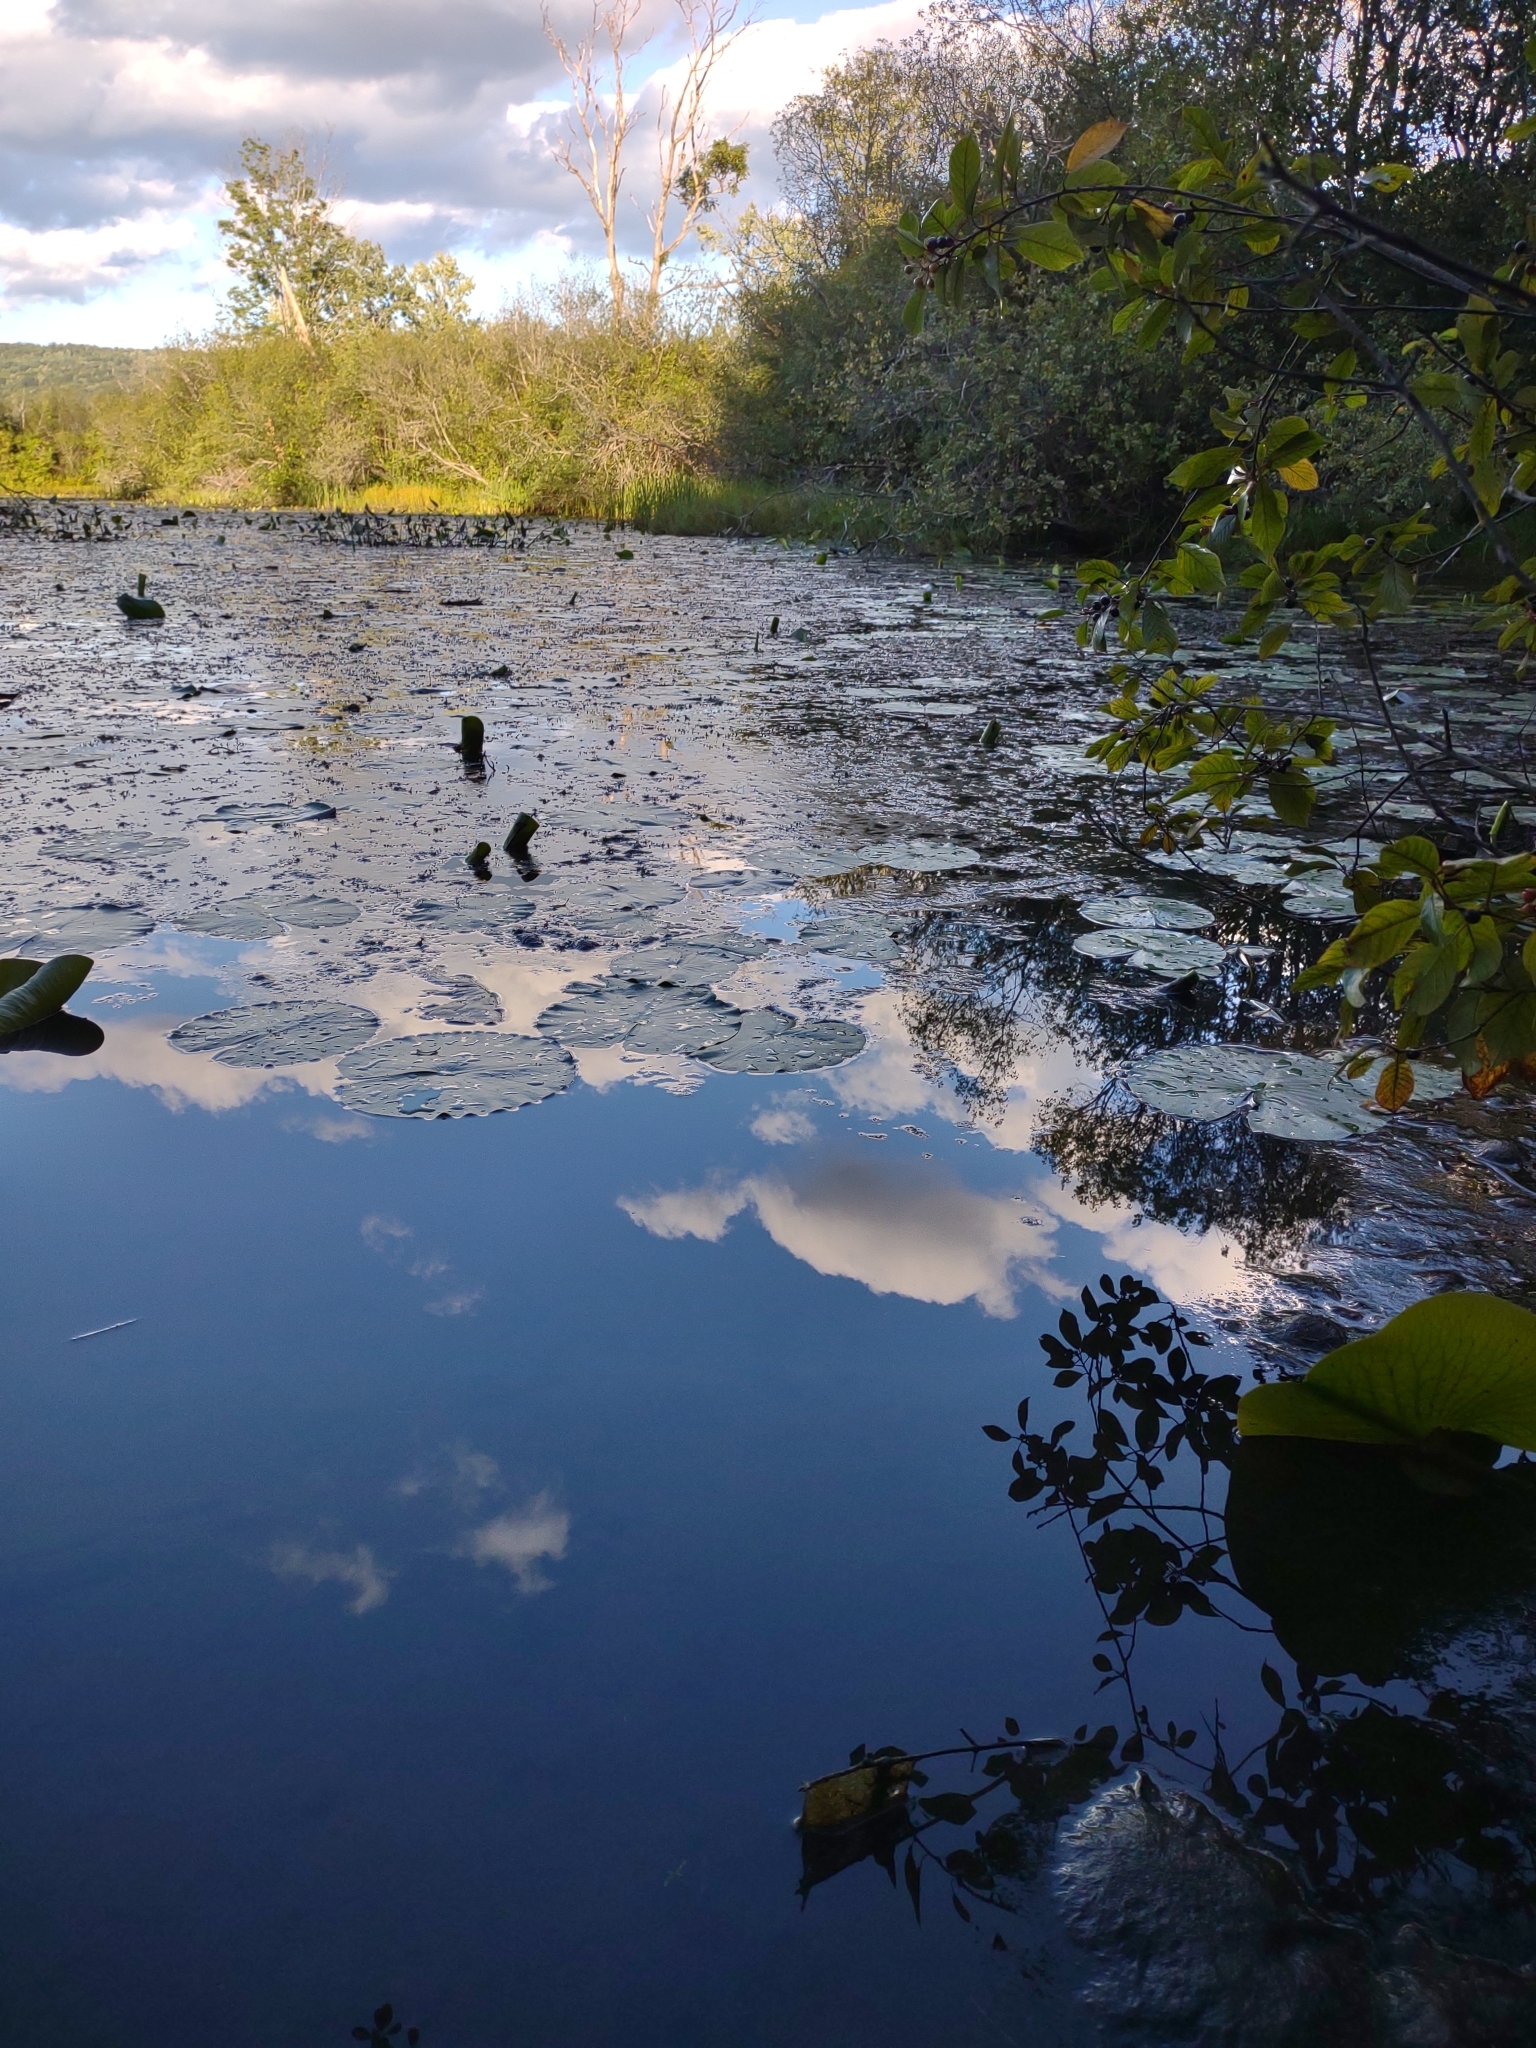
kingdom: Plantae
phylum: Tracheophyta
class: Magnoliopsida
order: Nymphaeales
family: Nymphaeaceae
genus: Nymphaea
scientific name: Nymphaea odorata
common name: Fragrant water-lily
